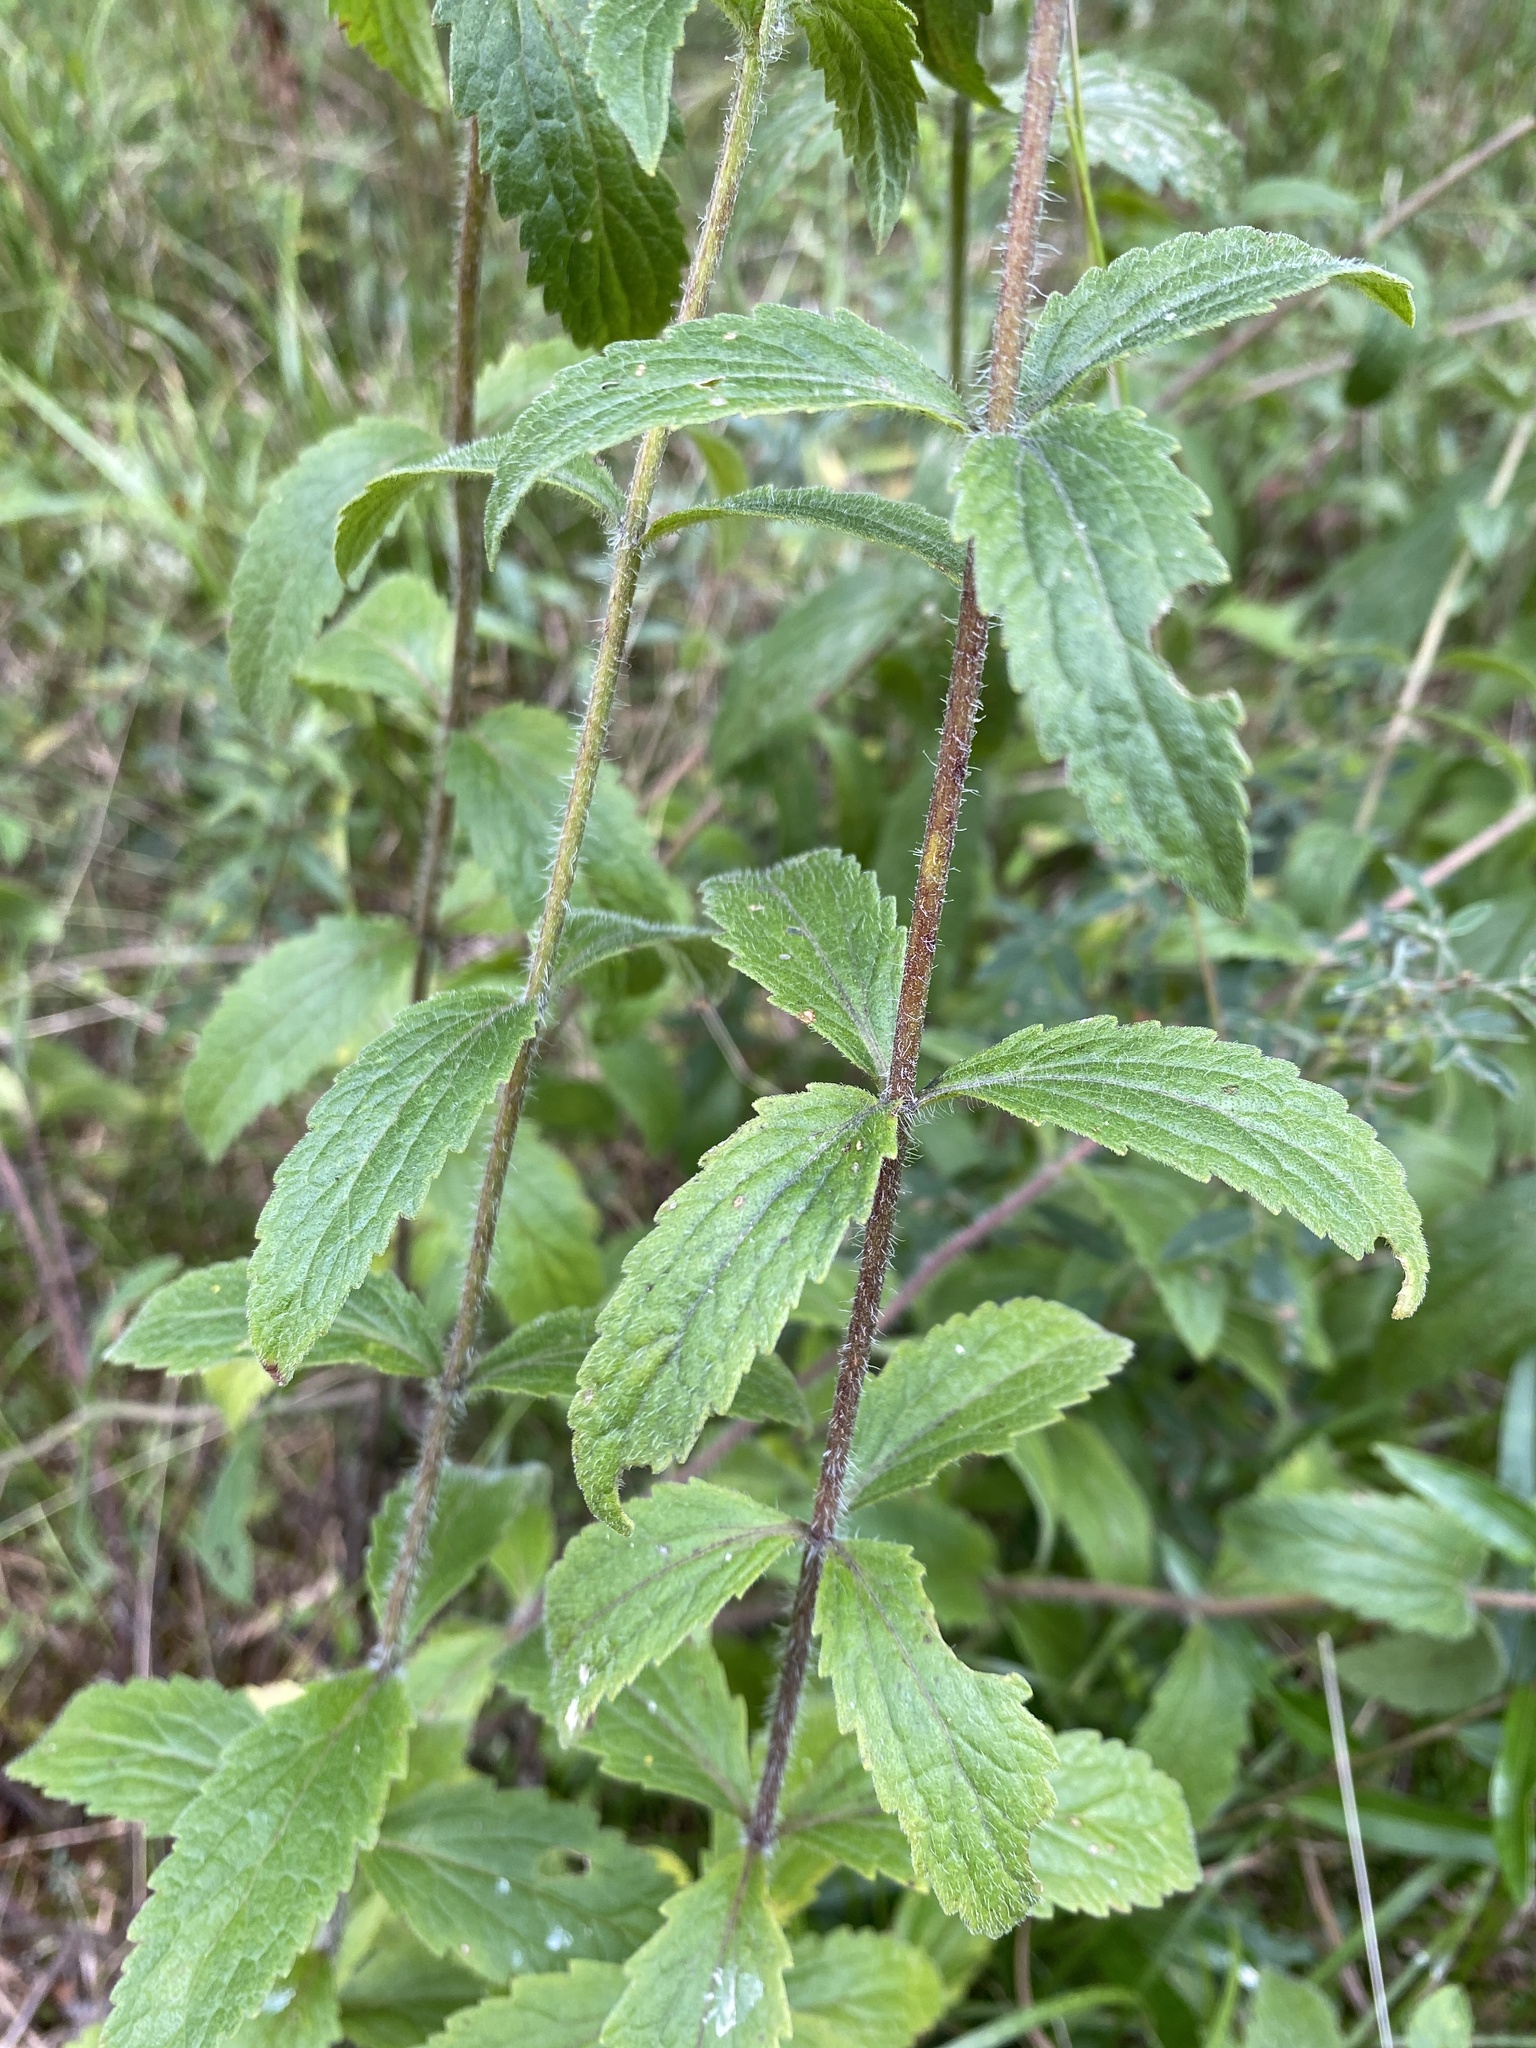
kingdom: Plantae
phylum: Tracheophyta
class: Magnoliopsida
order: Asterales
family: Asteraceae
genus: Eupatorium
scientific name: Eupatorium album
